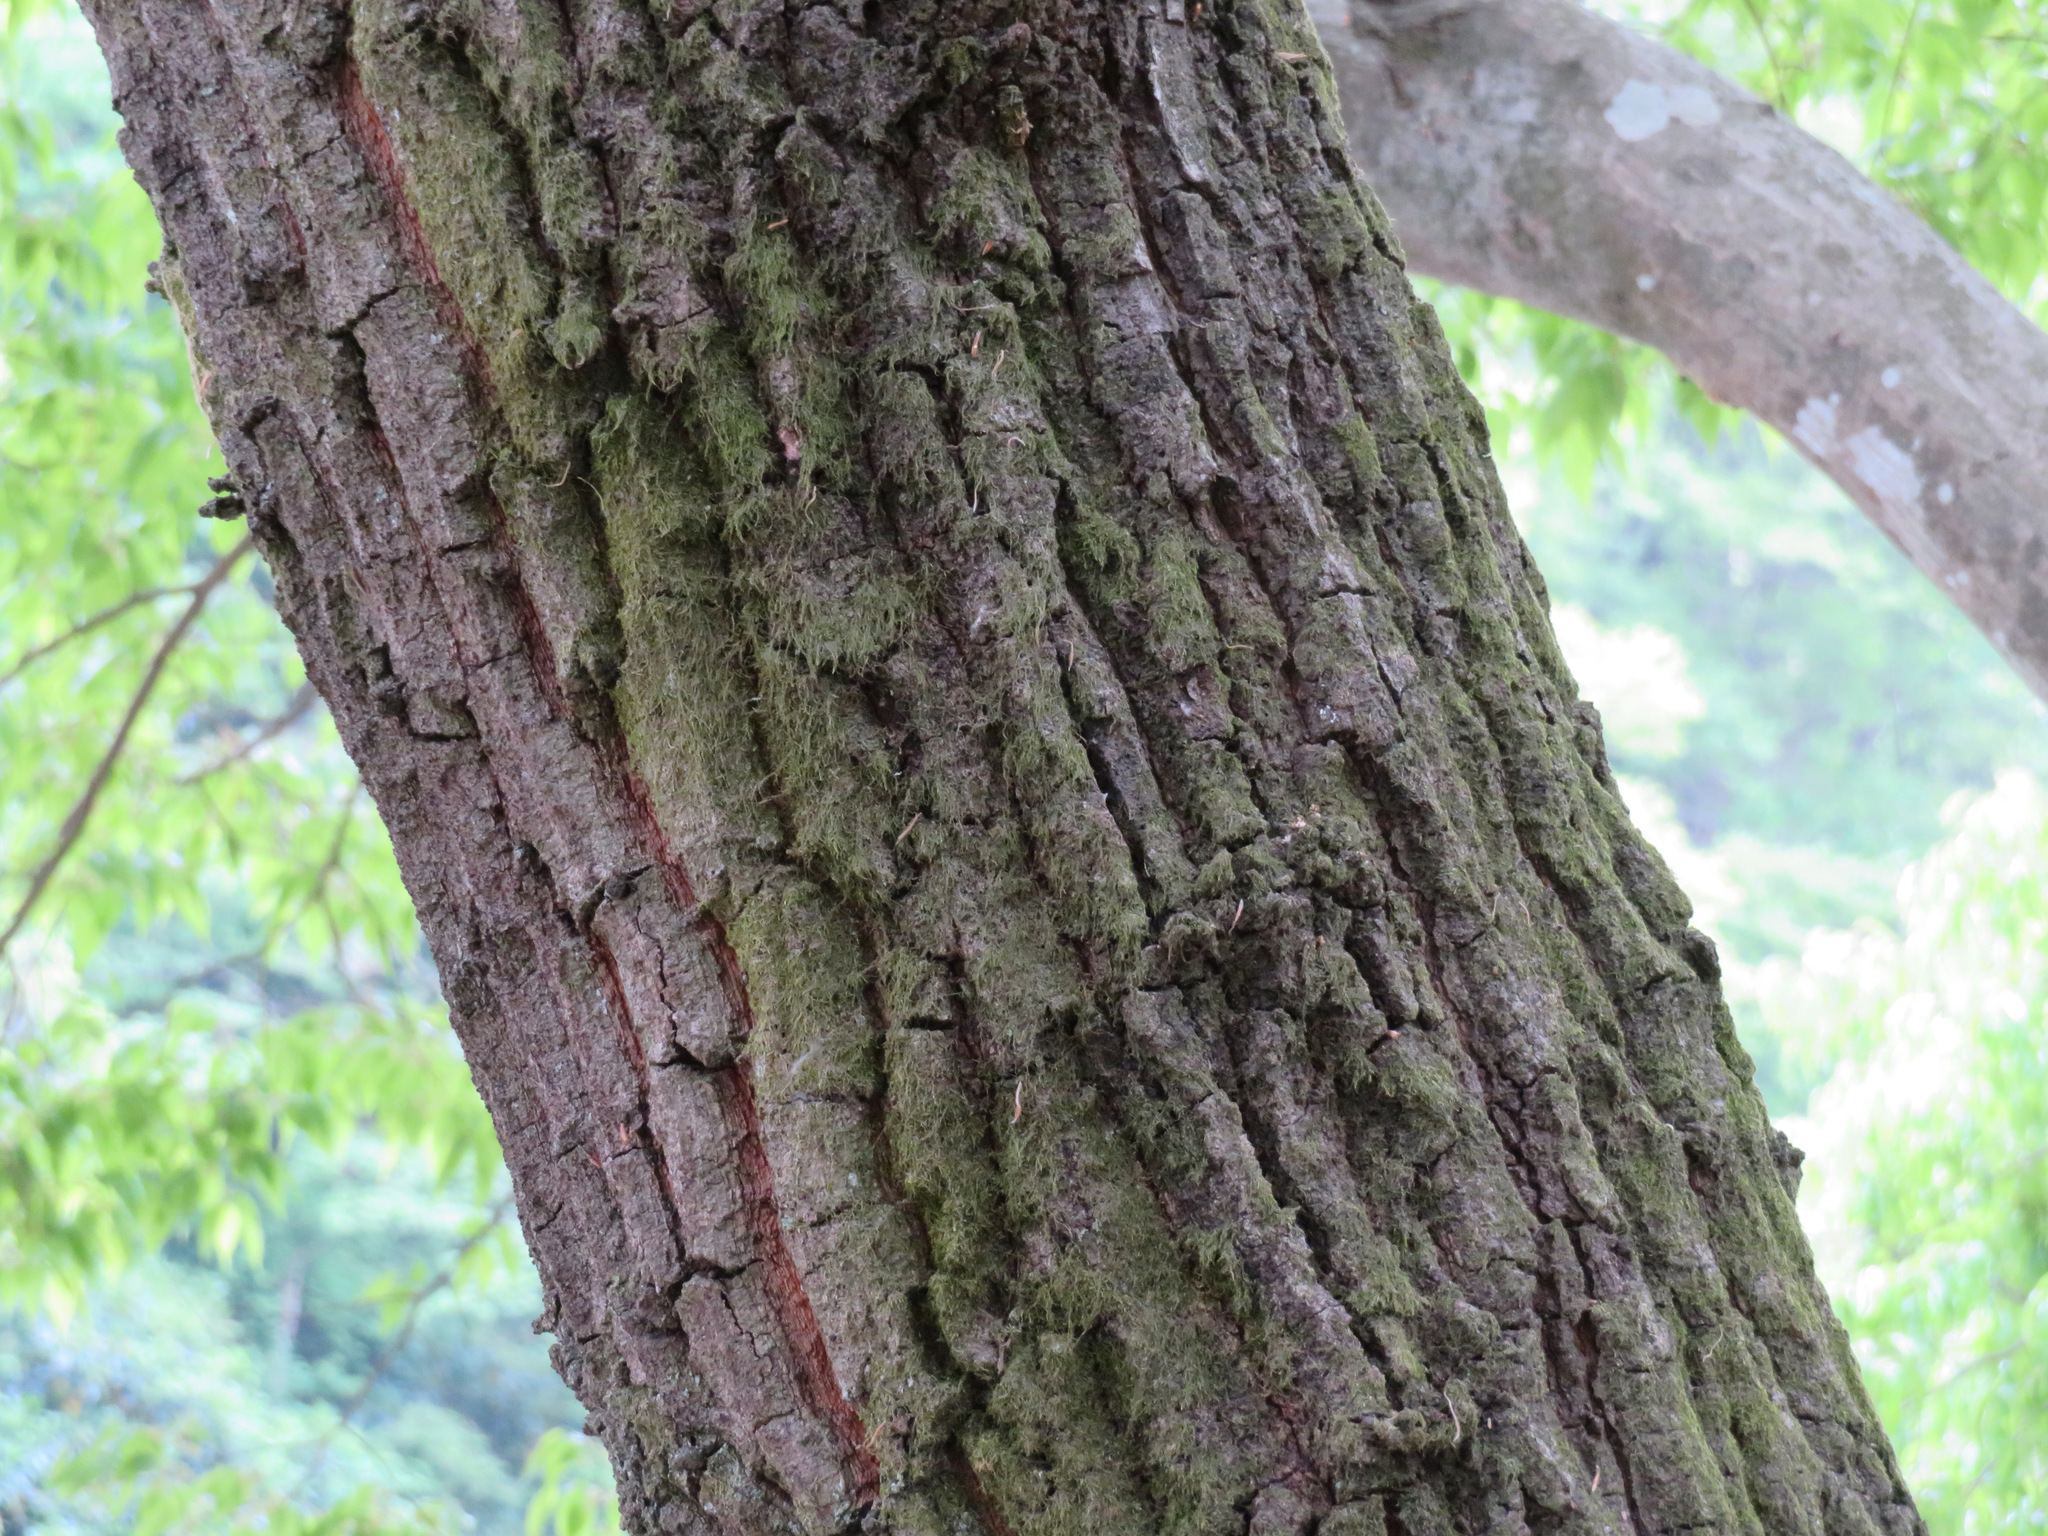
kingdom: Plantae
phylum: Tracheophyta
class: Magnoliopsida
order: Fagales
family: Fagaceae
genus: Quercus
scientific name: Quercus acutissima
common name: Sawtooth oak
